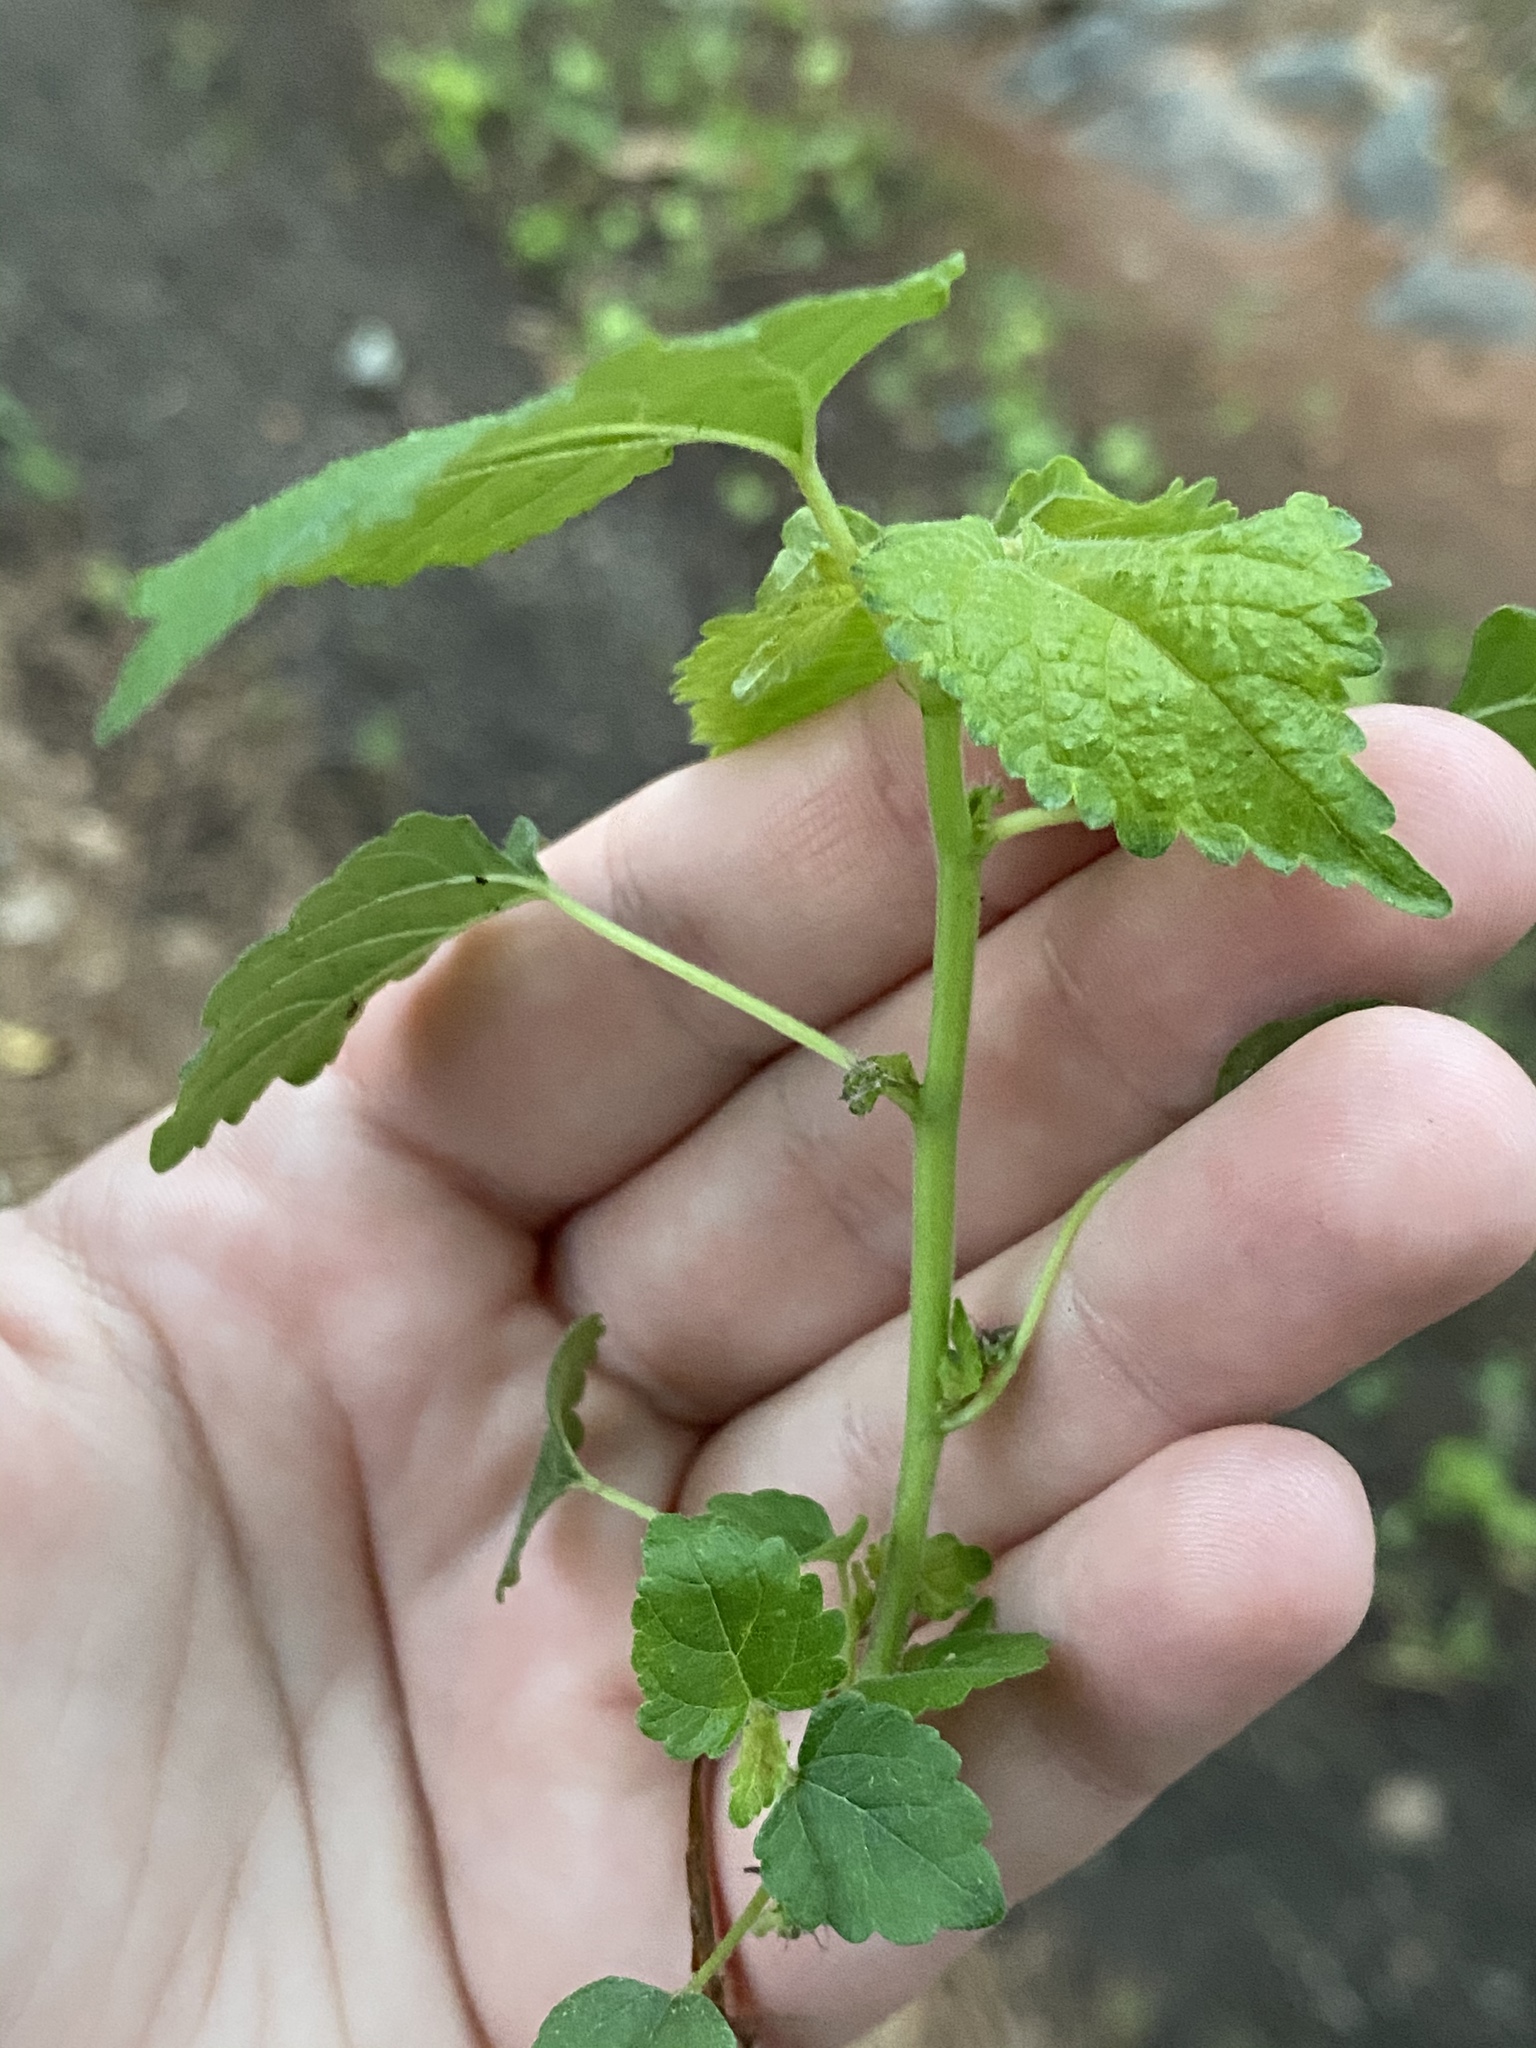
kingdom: Plantae
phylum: Tracheophyta
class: Magnoliopsida
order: Rosales
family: Moraceae
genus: Fatoua
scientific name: Fatoua villosa
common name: Hairy crabweed
